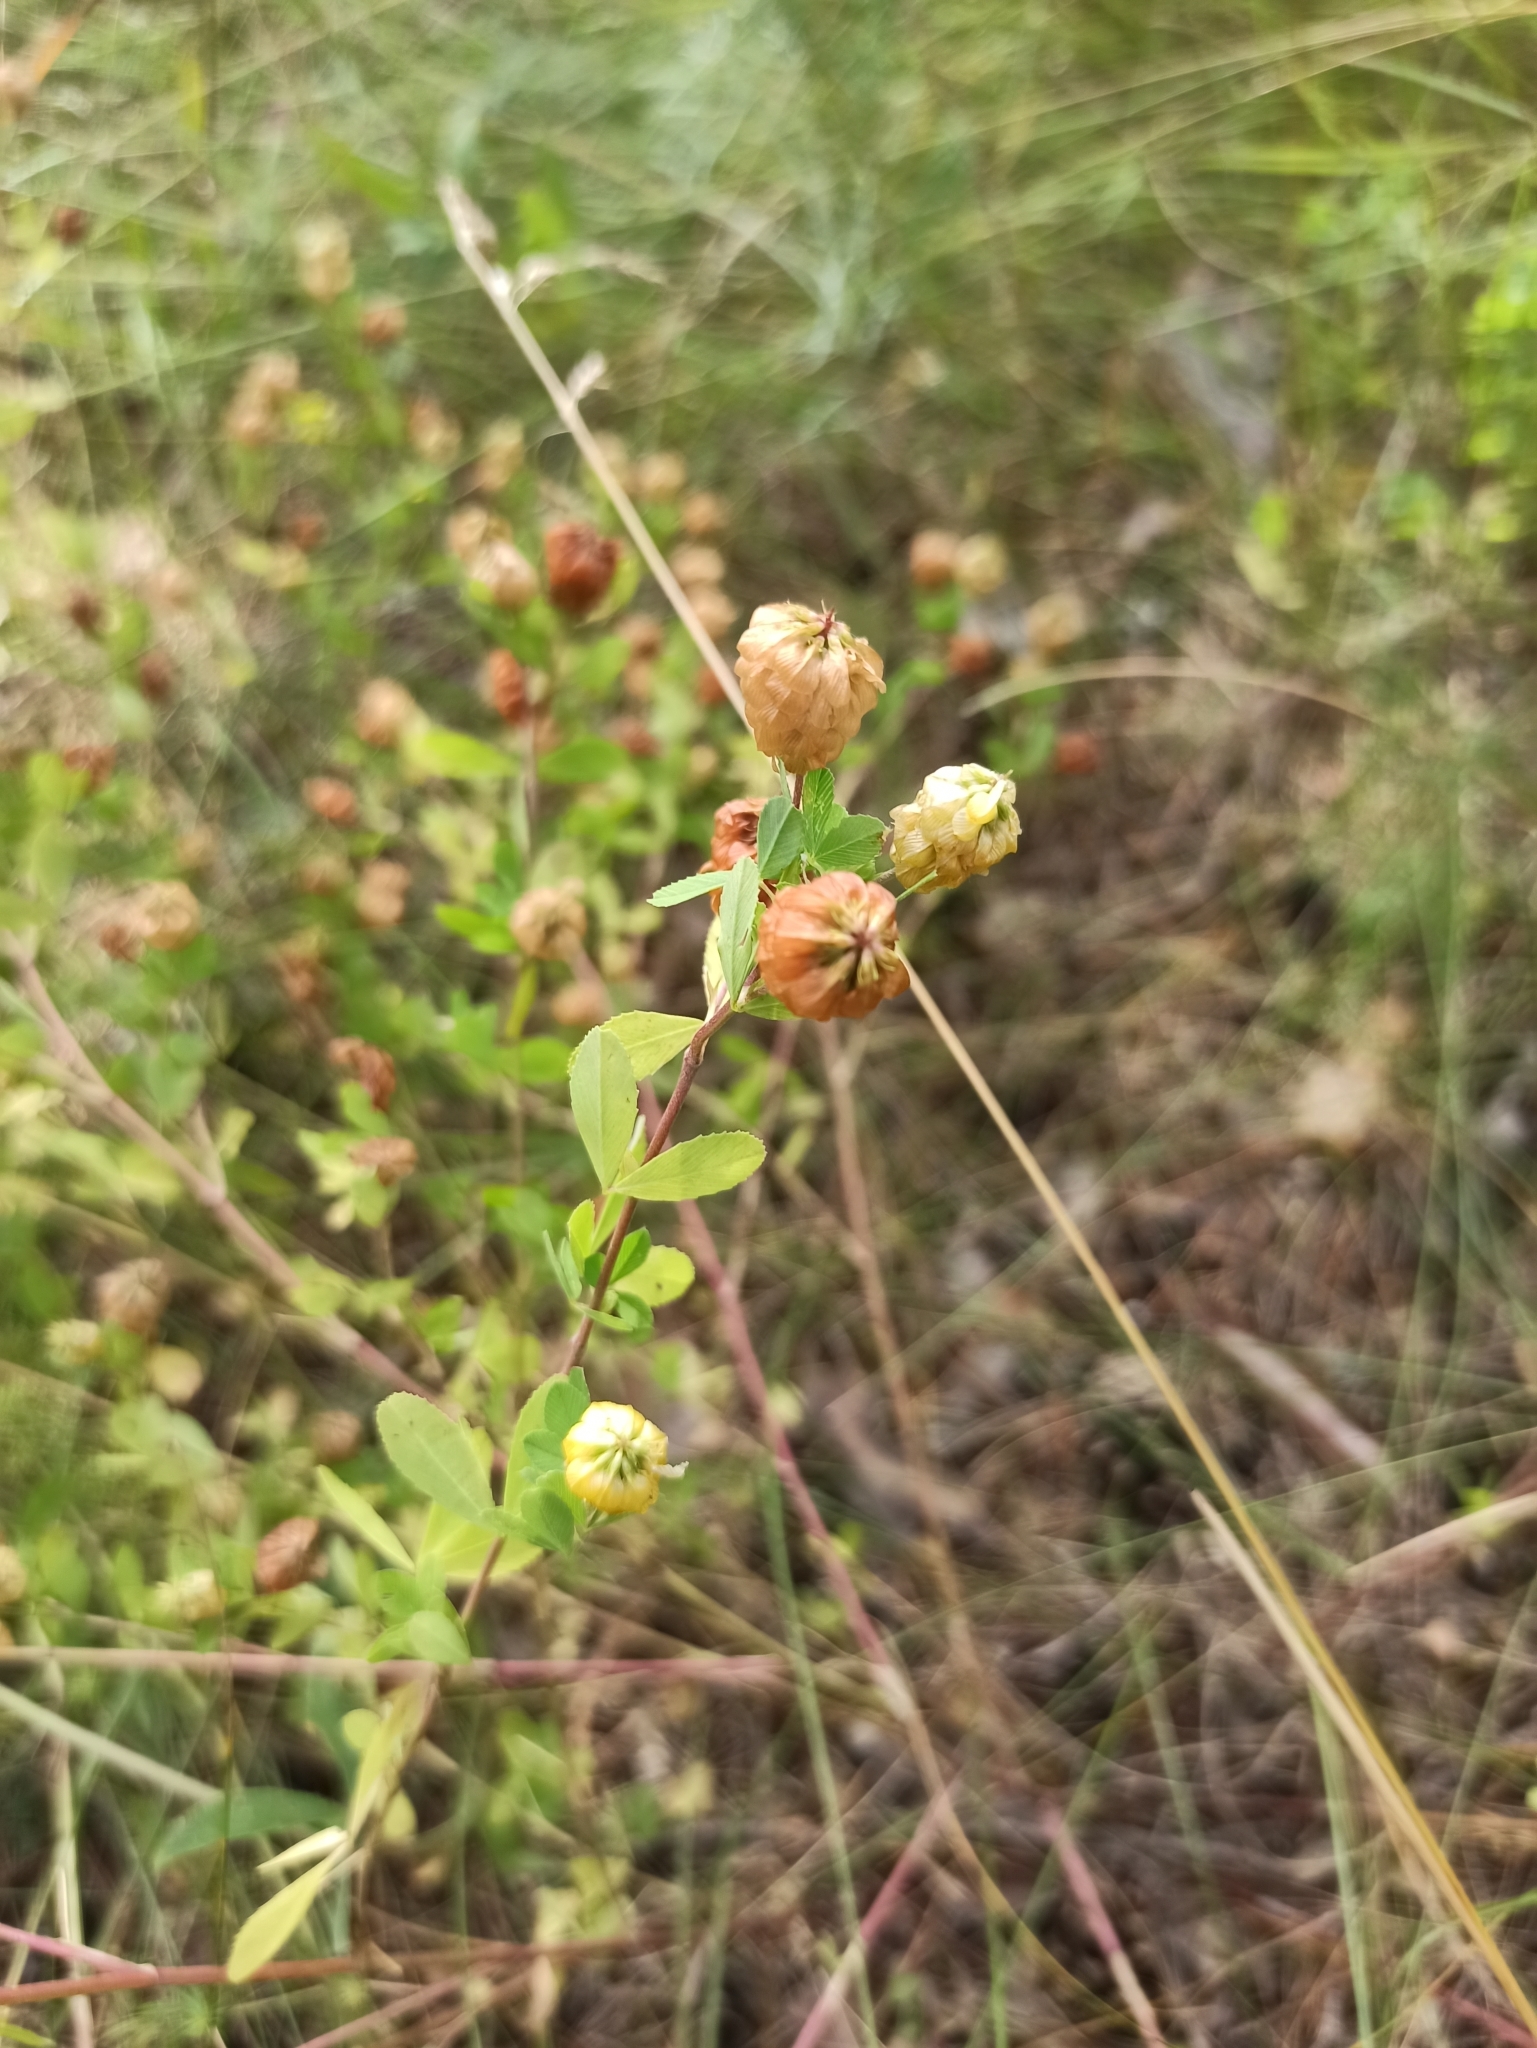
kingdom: Plantae
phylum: Tracheophyta
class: Magnoliopsida
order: Fabales
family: Fabaceae
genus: Trifolium
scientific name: Trifolium aureum
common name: Golden clover
